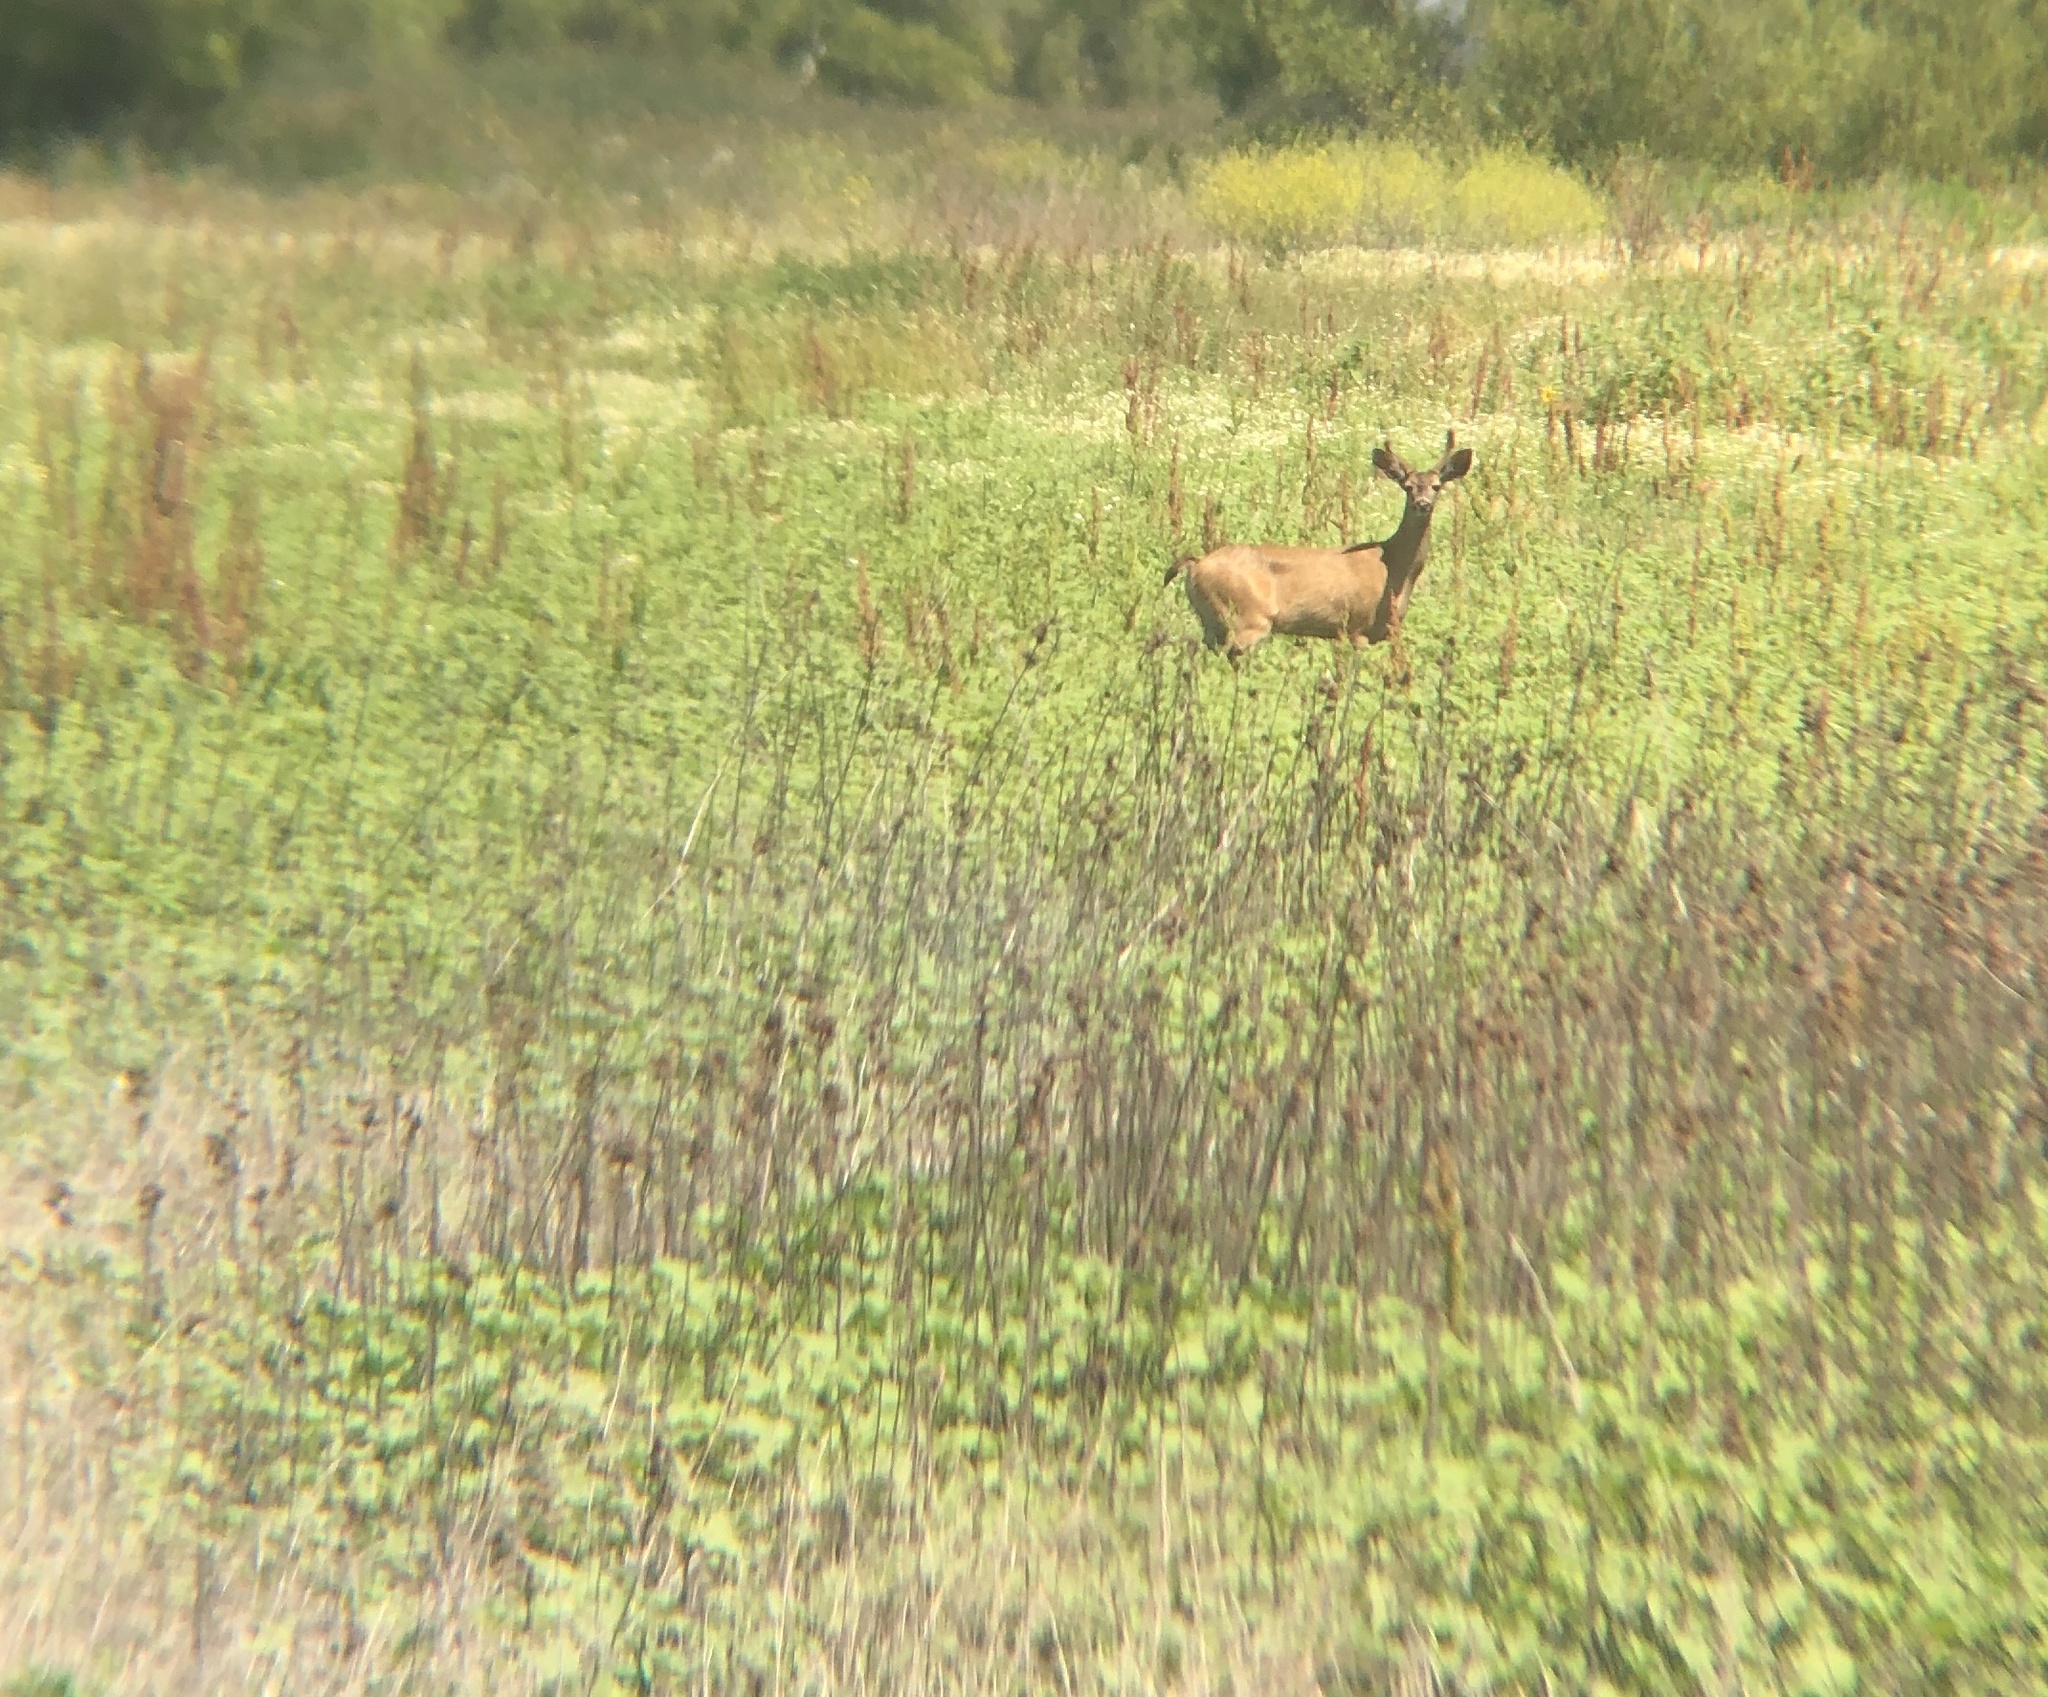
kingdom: Animalia
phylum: Chordata
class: Mammalia
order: Artiodactyla
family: Cervidae
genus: Odocoileus
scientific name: Odocoileus hemionus
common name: Mule deer
